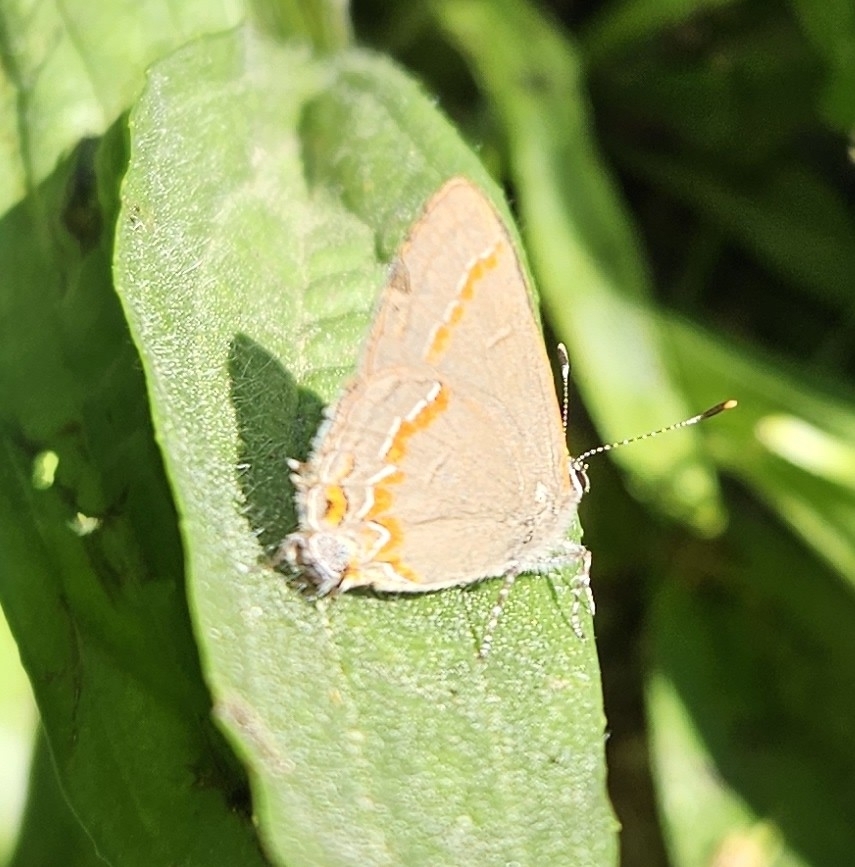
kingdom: Animalia
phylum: Arthropoda
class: Insecta
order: Lepidoptera
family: Lycaenidae
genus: Calycopis
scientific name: Calycopis cecrops
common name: Red-banded hairstreak
